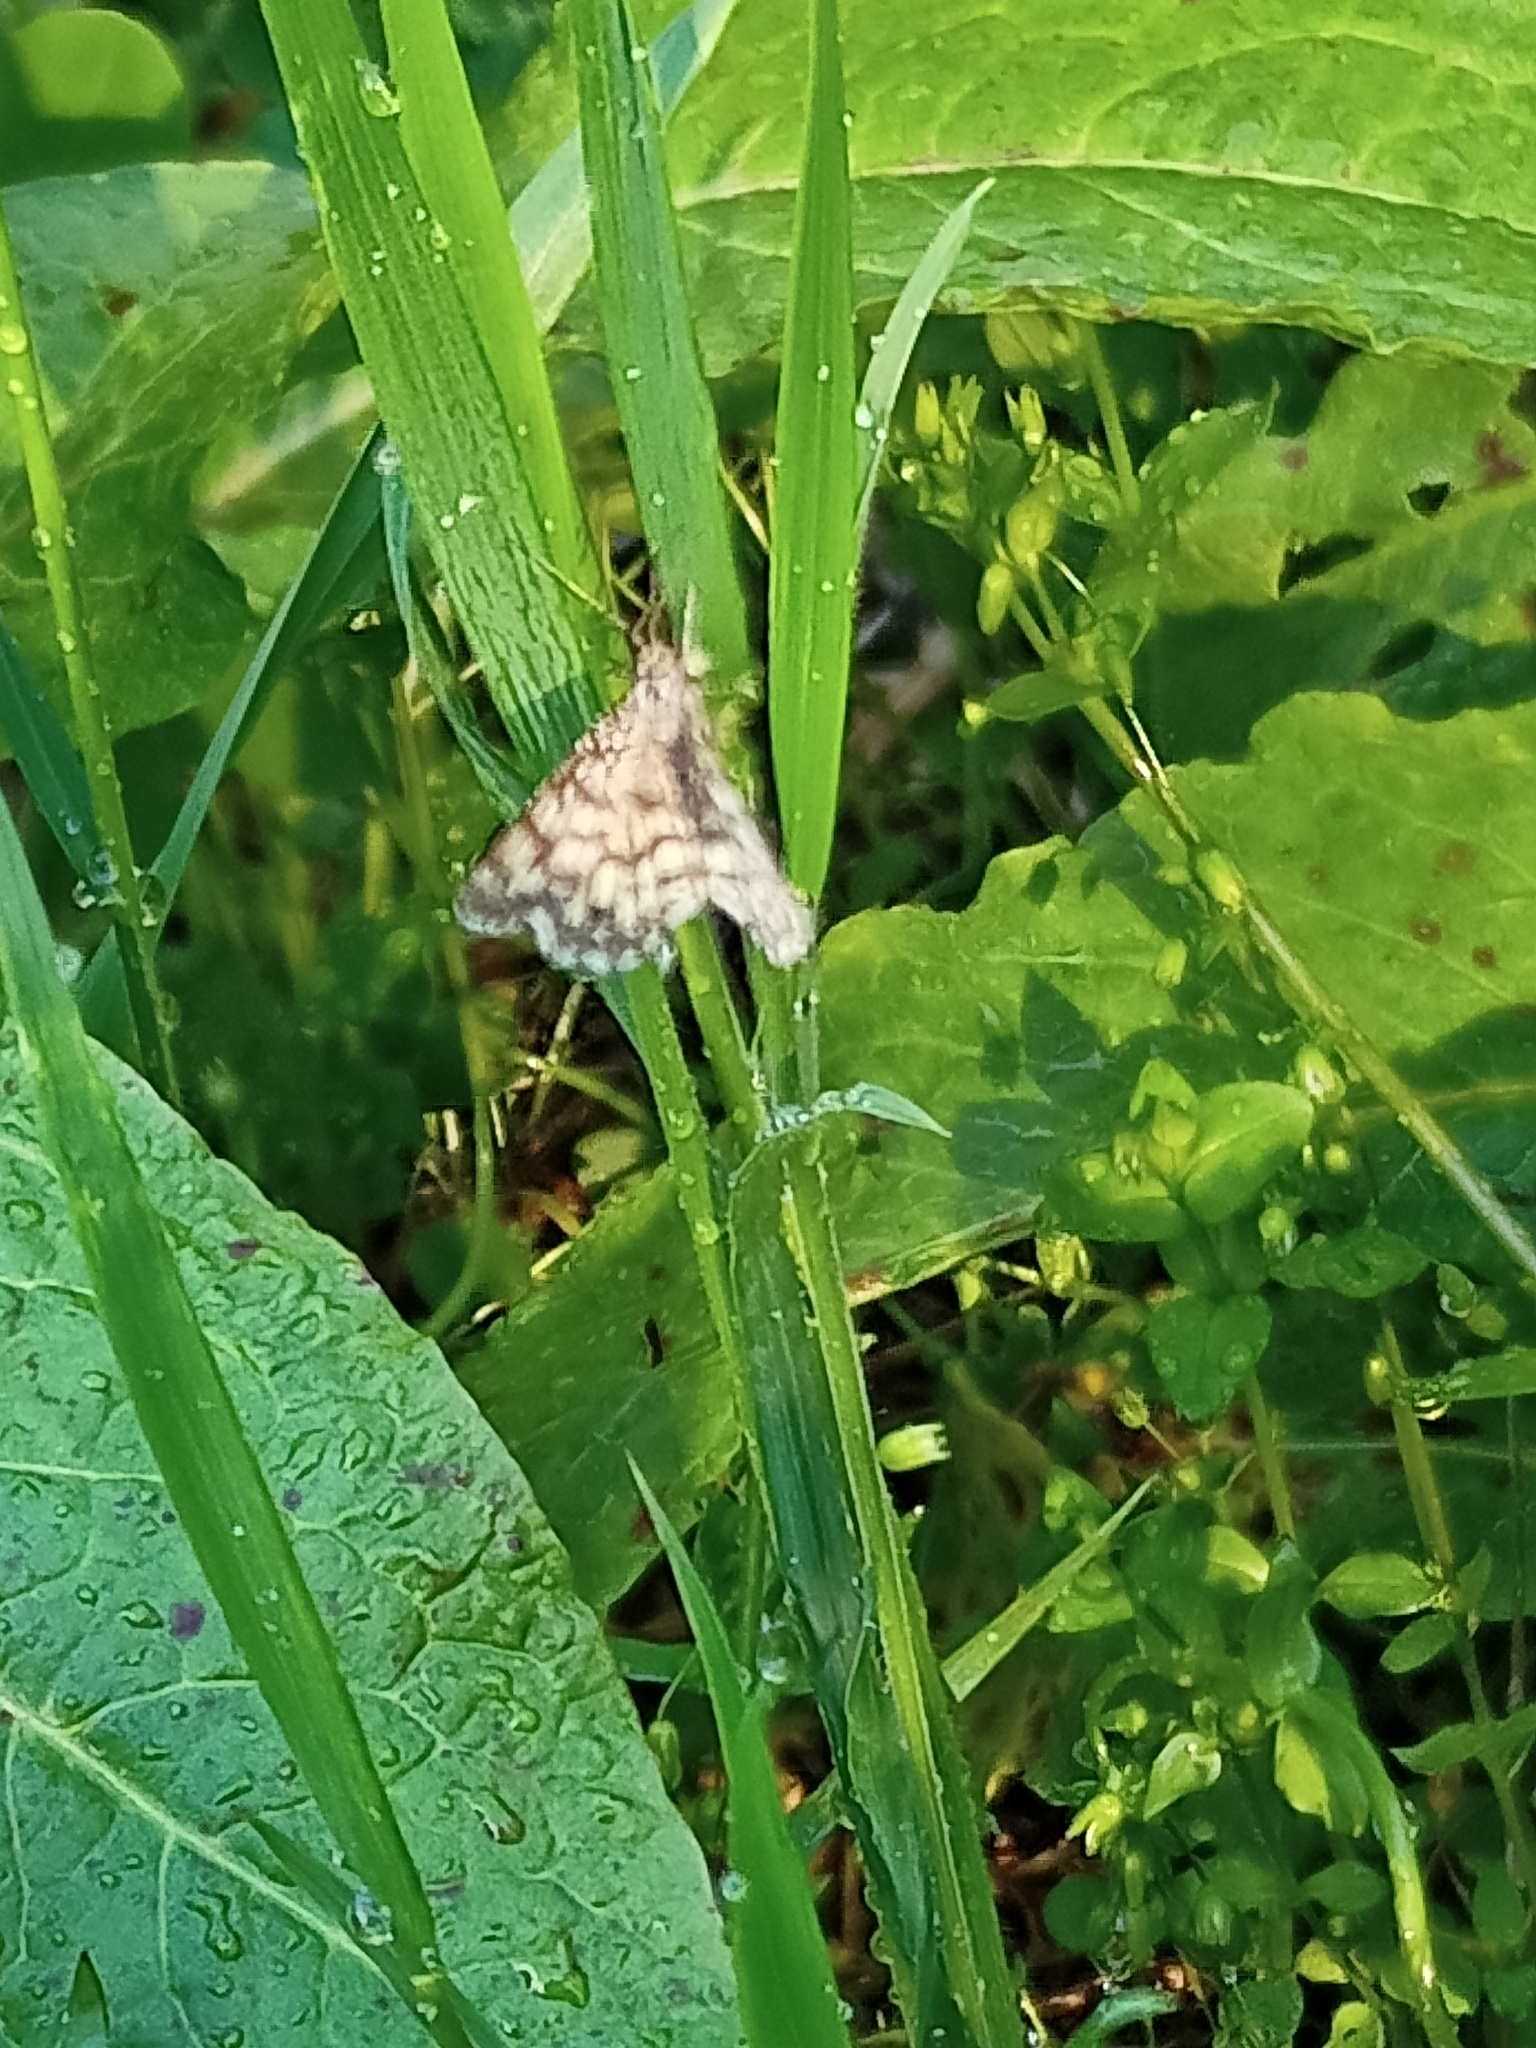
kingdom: Animalia
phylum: Arthropoda
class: Insecta
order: Lepidoptera
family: Geometridae
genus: Chiasmia
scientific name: Chiasmia clathrata
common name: Latticed heath
